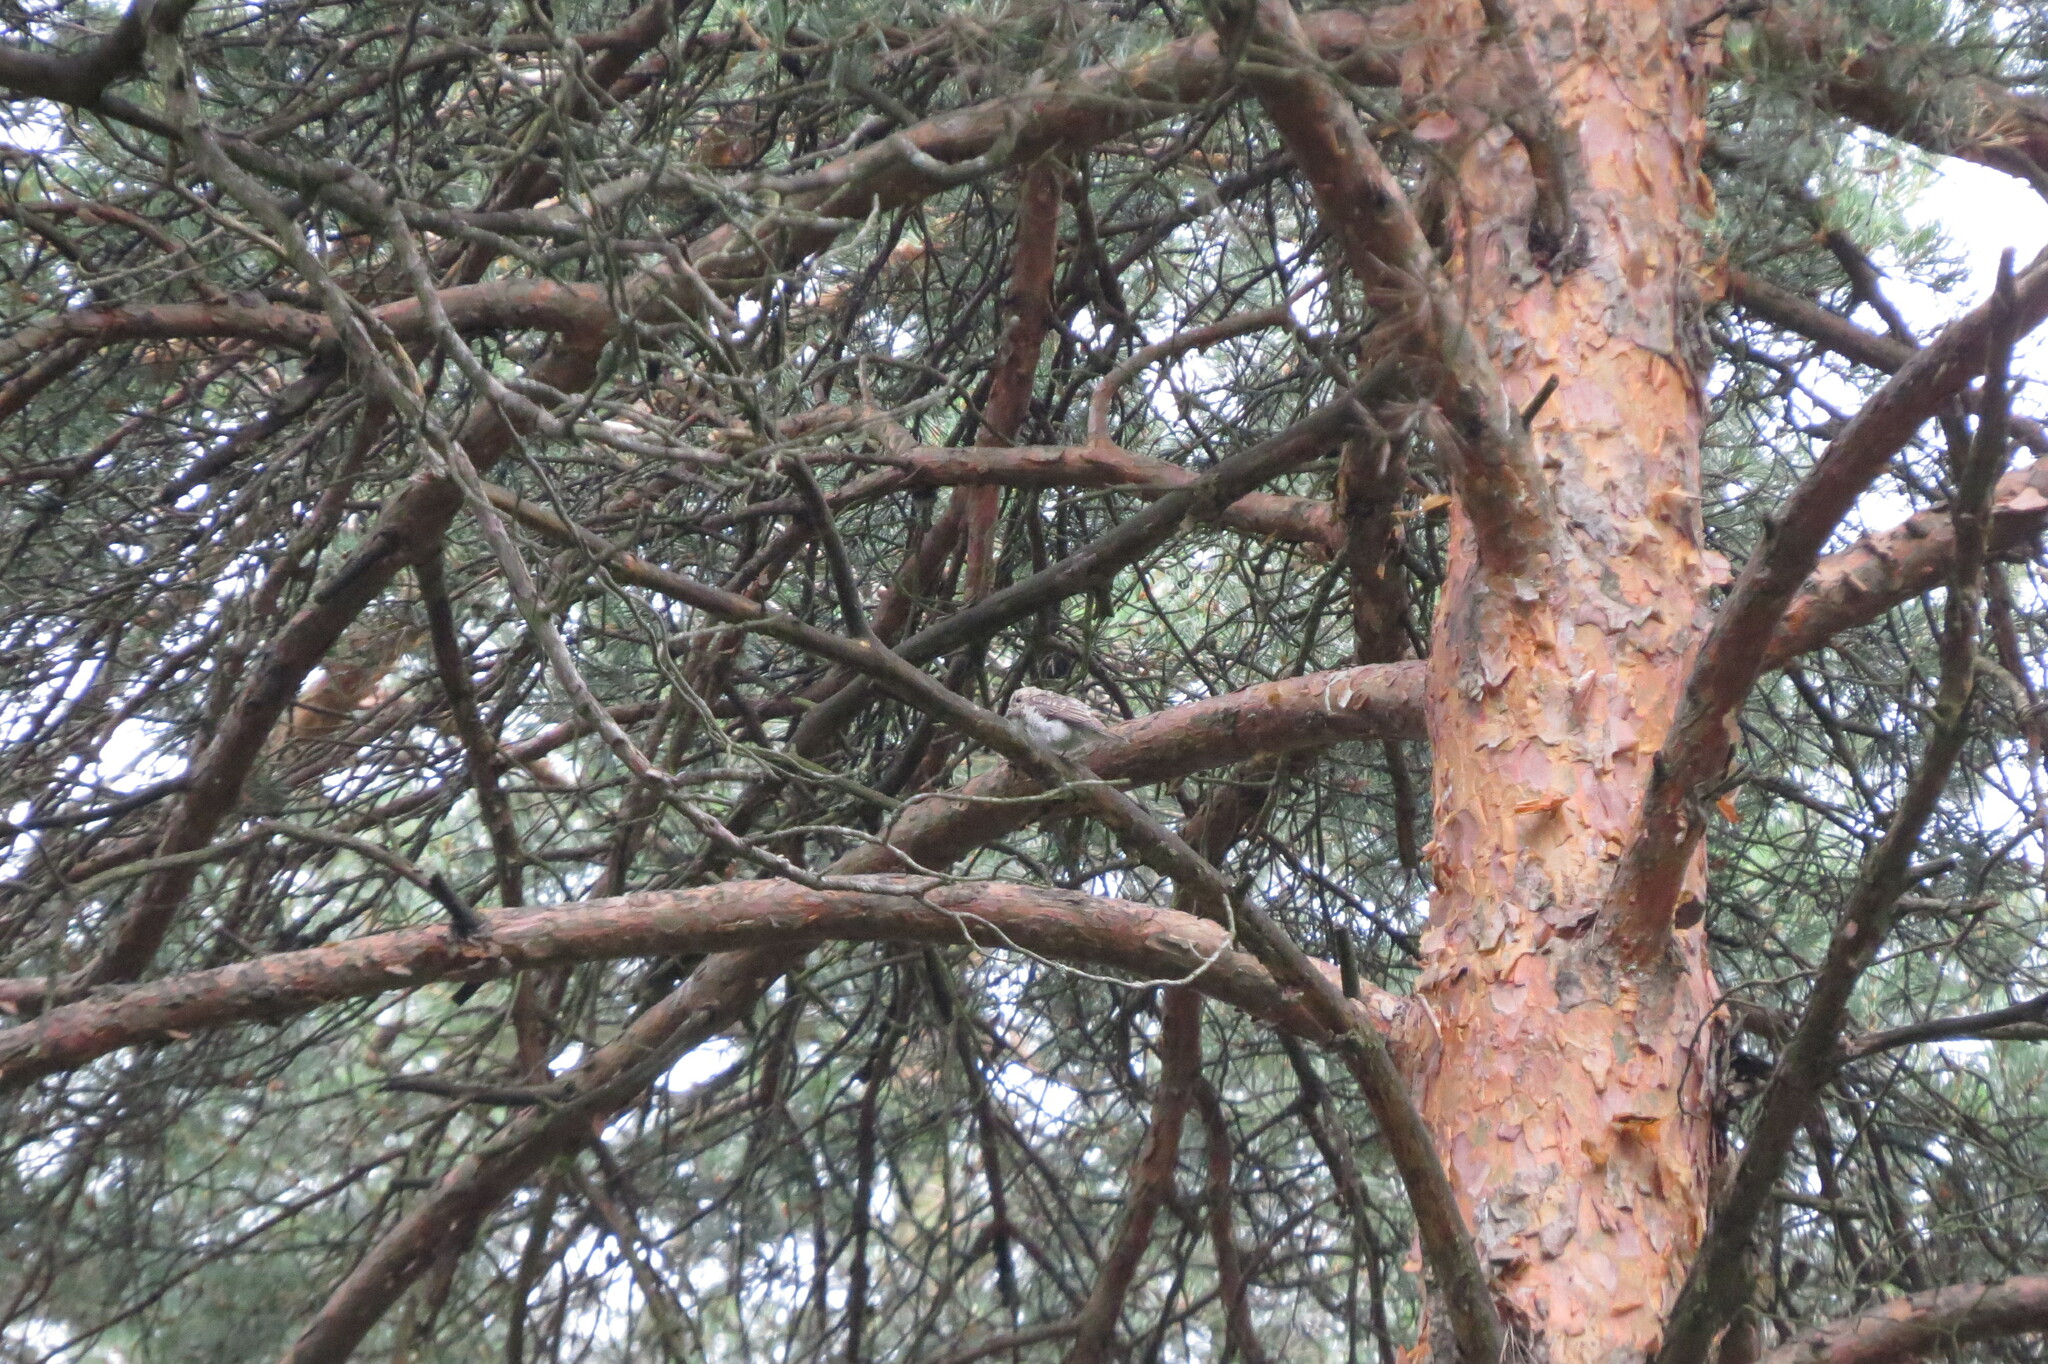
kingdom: Animalia
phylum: Chordata
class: Aves
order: Passeriformes
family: Muscicapidae
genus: Muscicapa
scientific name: Muscicapa striata
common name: Spotted flycatcher
